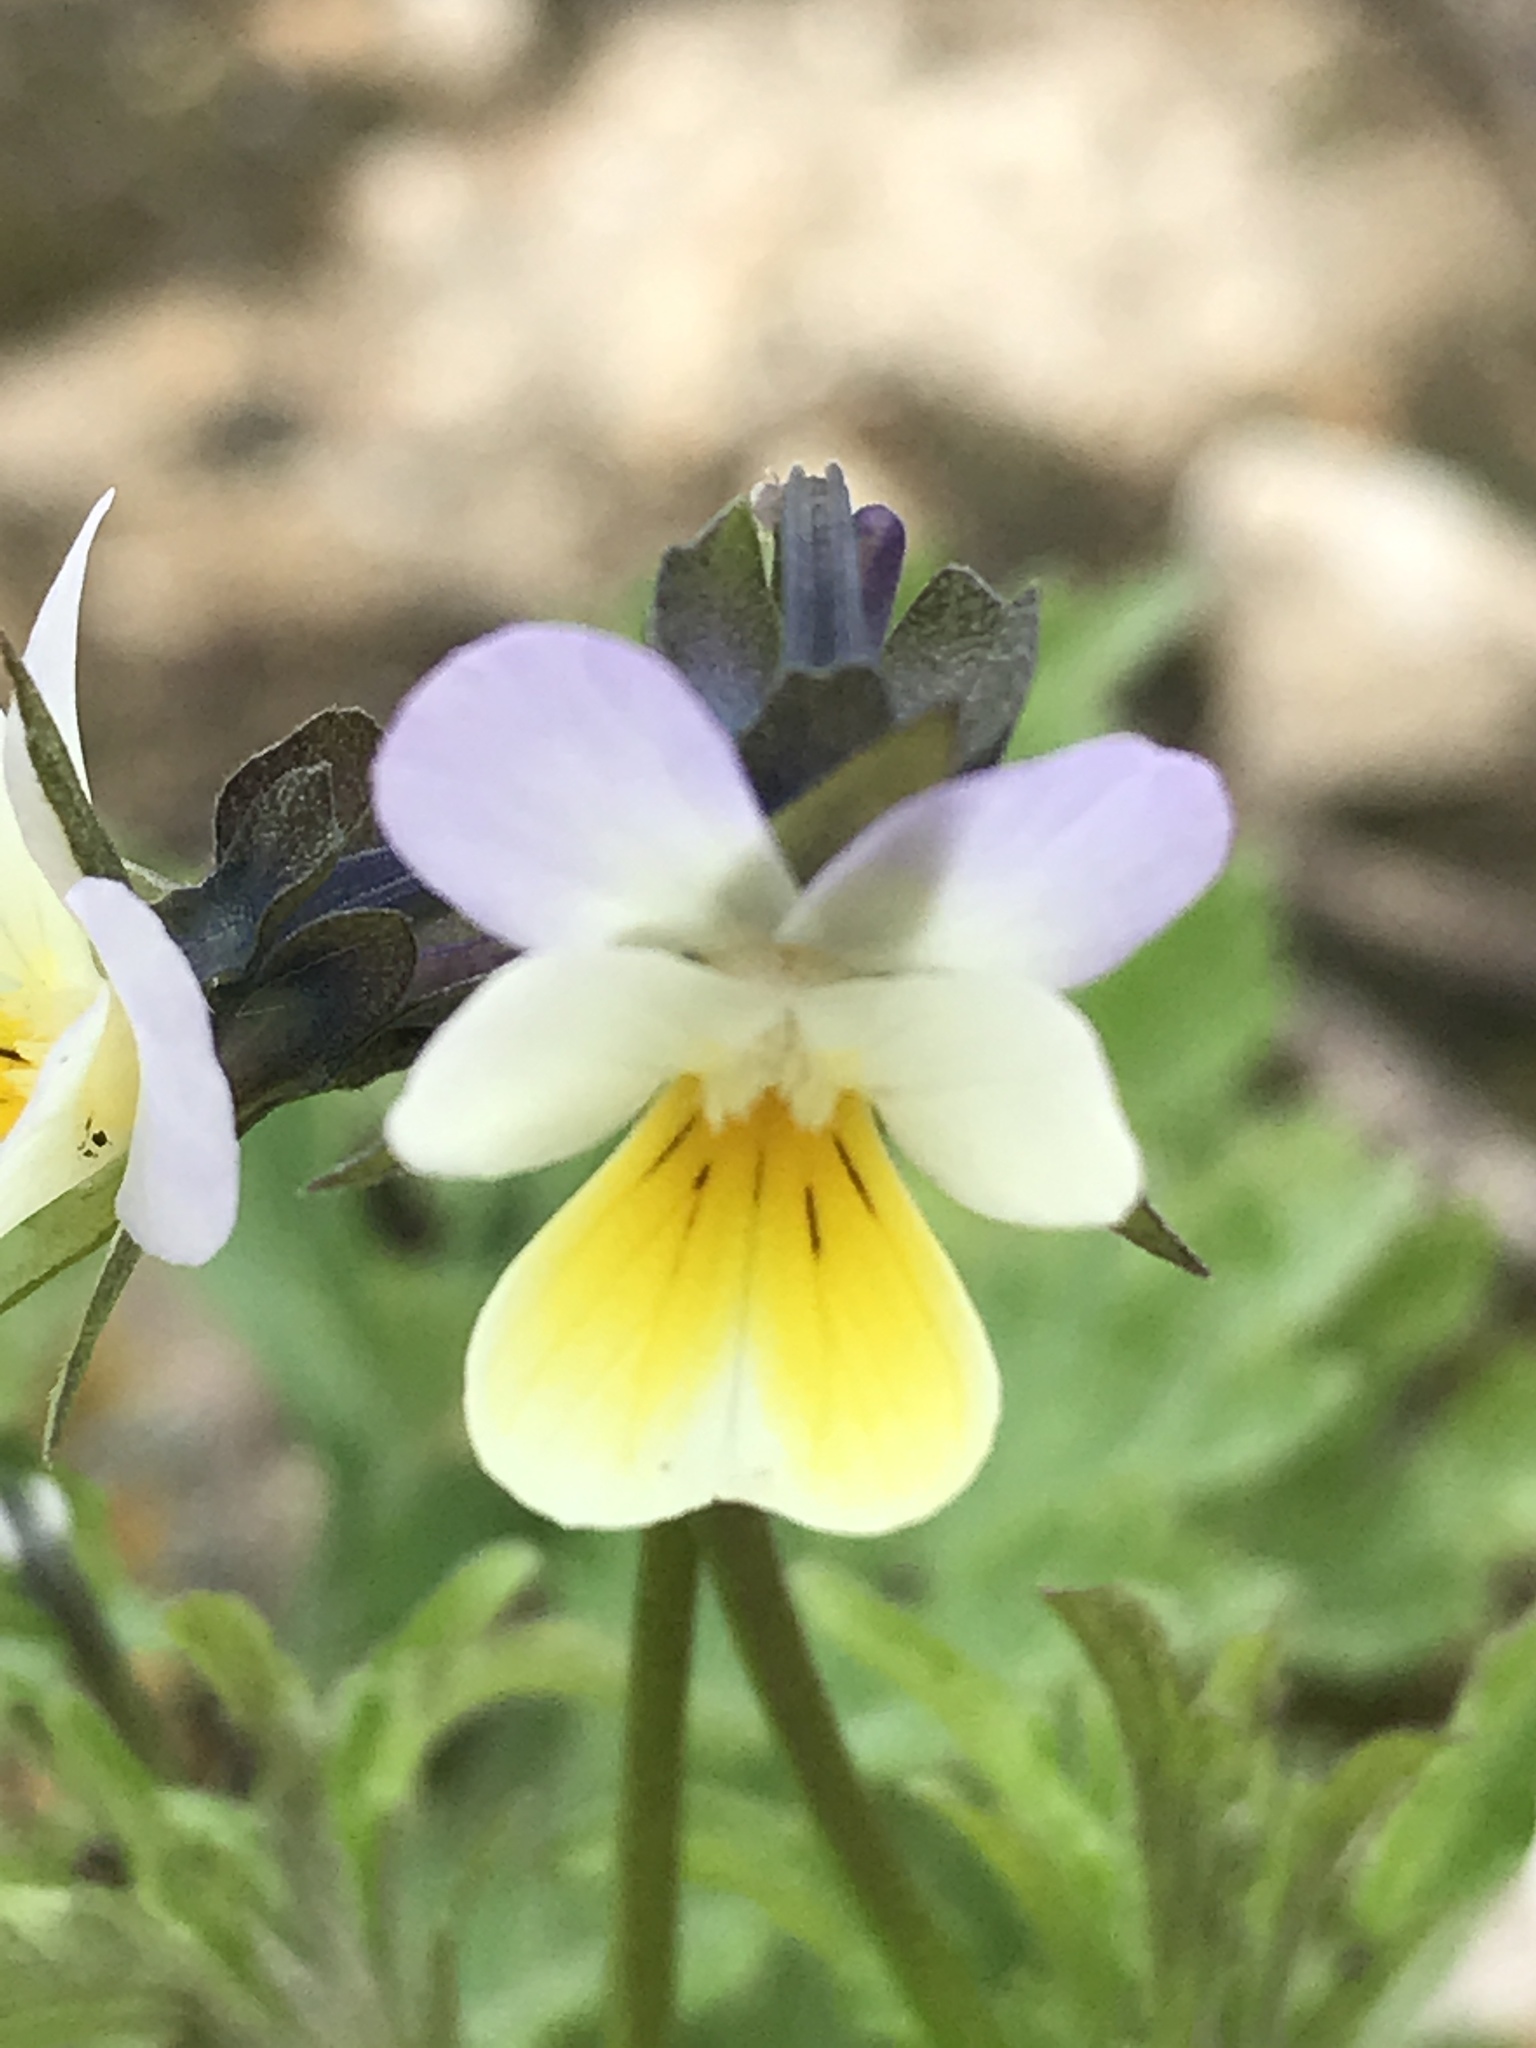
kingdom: Plantae
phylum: Tracheophyta
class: Magnoliopsida
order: Malpighiales
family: Violaceae
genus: Viola
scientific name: Viola arvensis
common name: Field pansy
